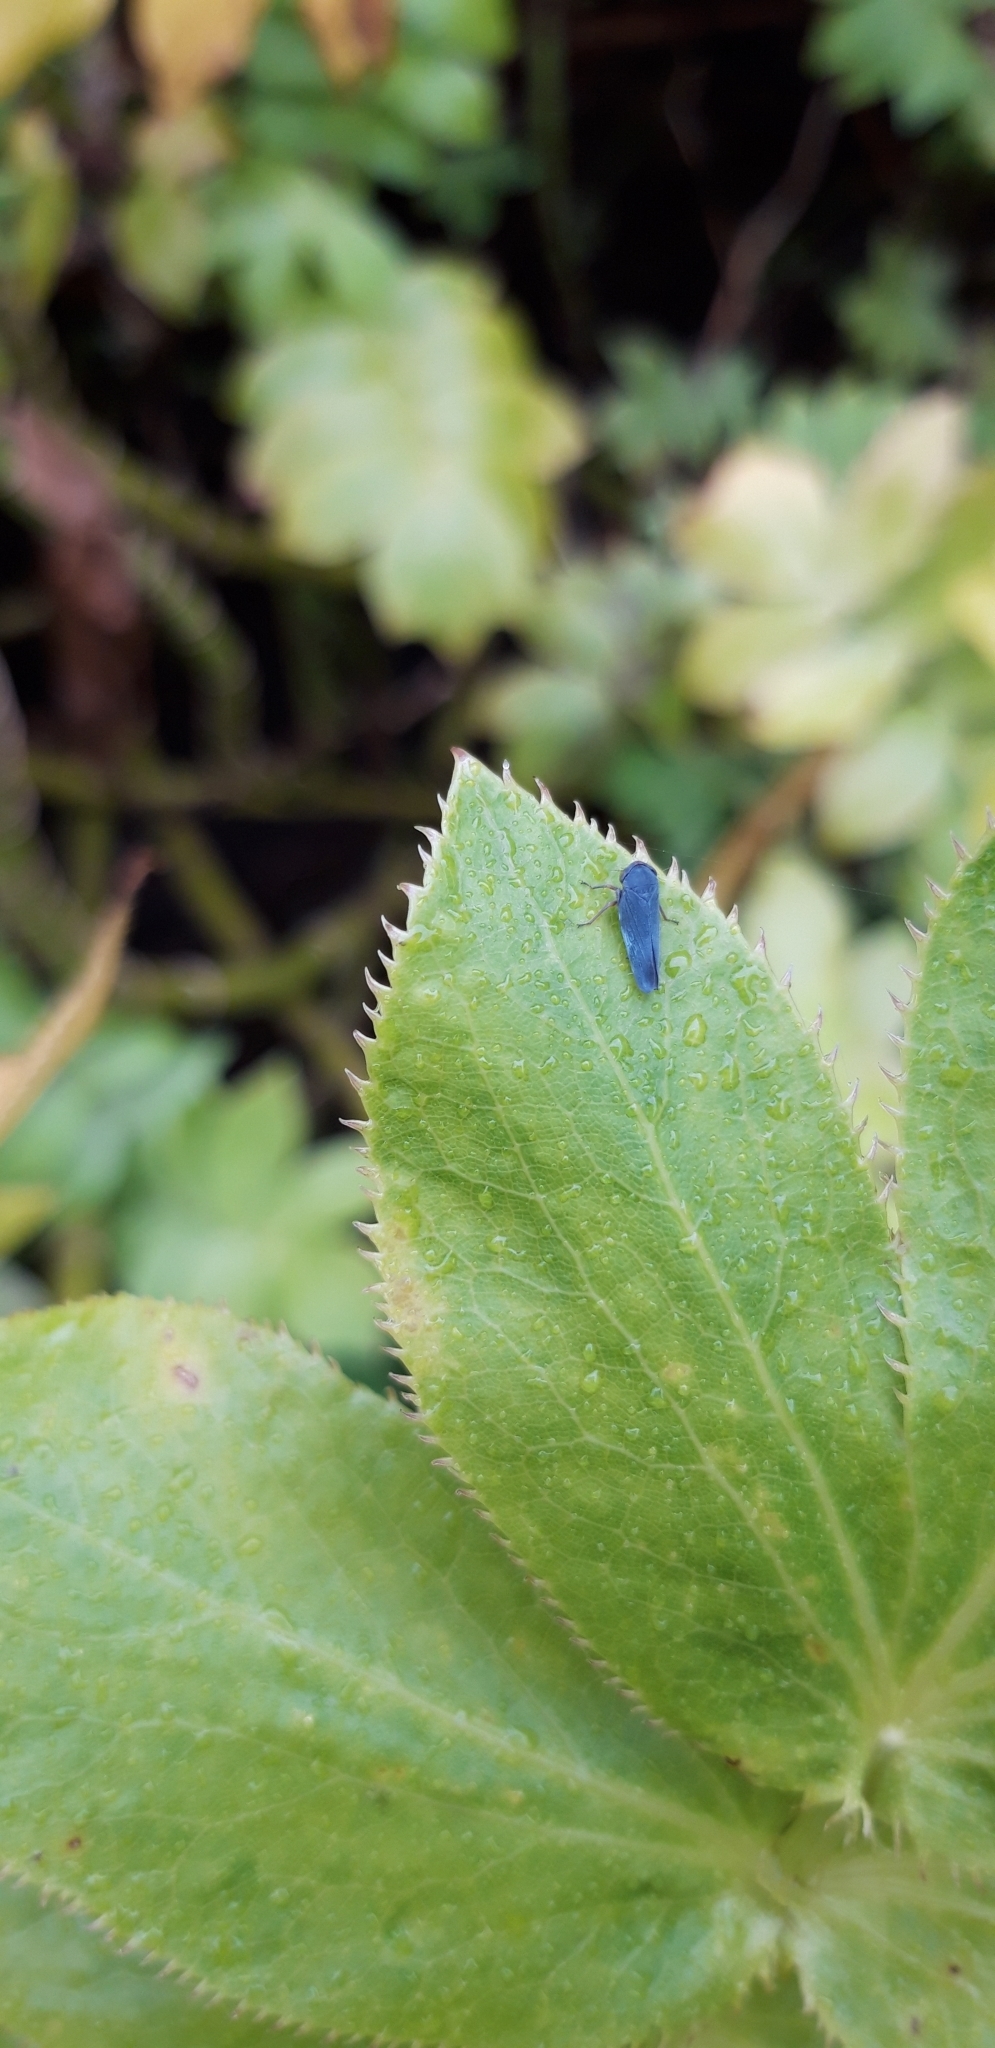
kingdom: Animalia
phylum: Arthropoda
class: Insecta
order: Hemiptera
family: Cicadellidae
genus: Nehela
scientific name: Nehela vulturina
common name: Vulturine leafhopper
